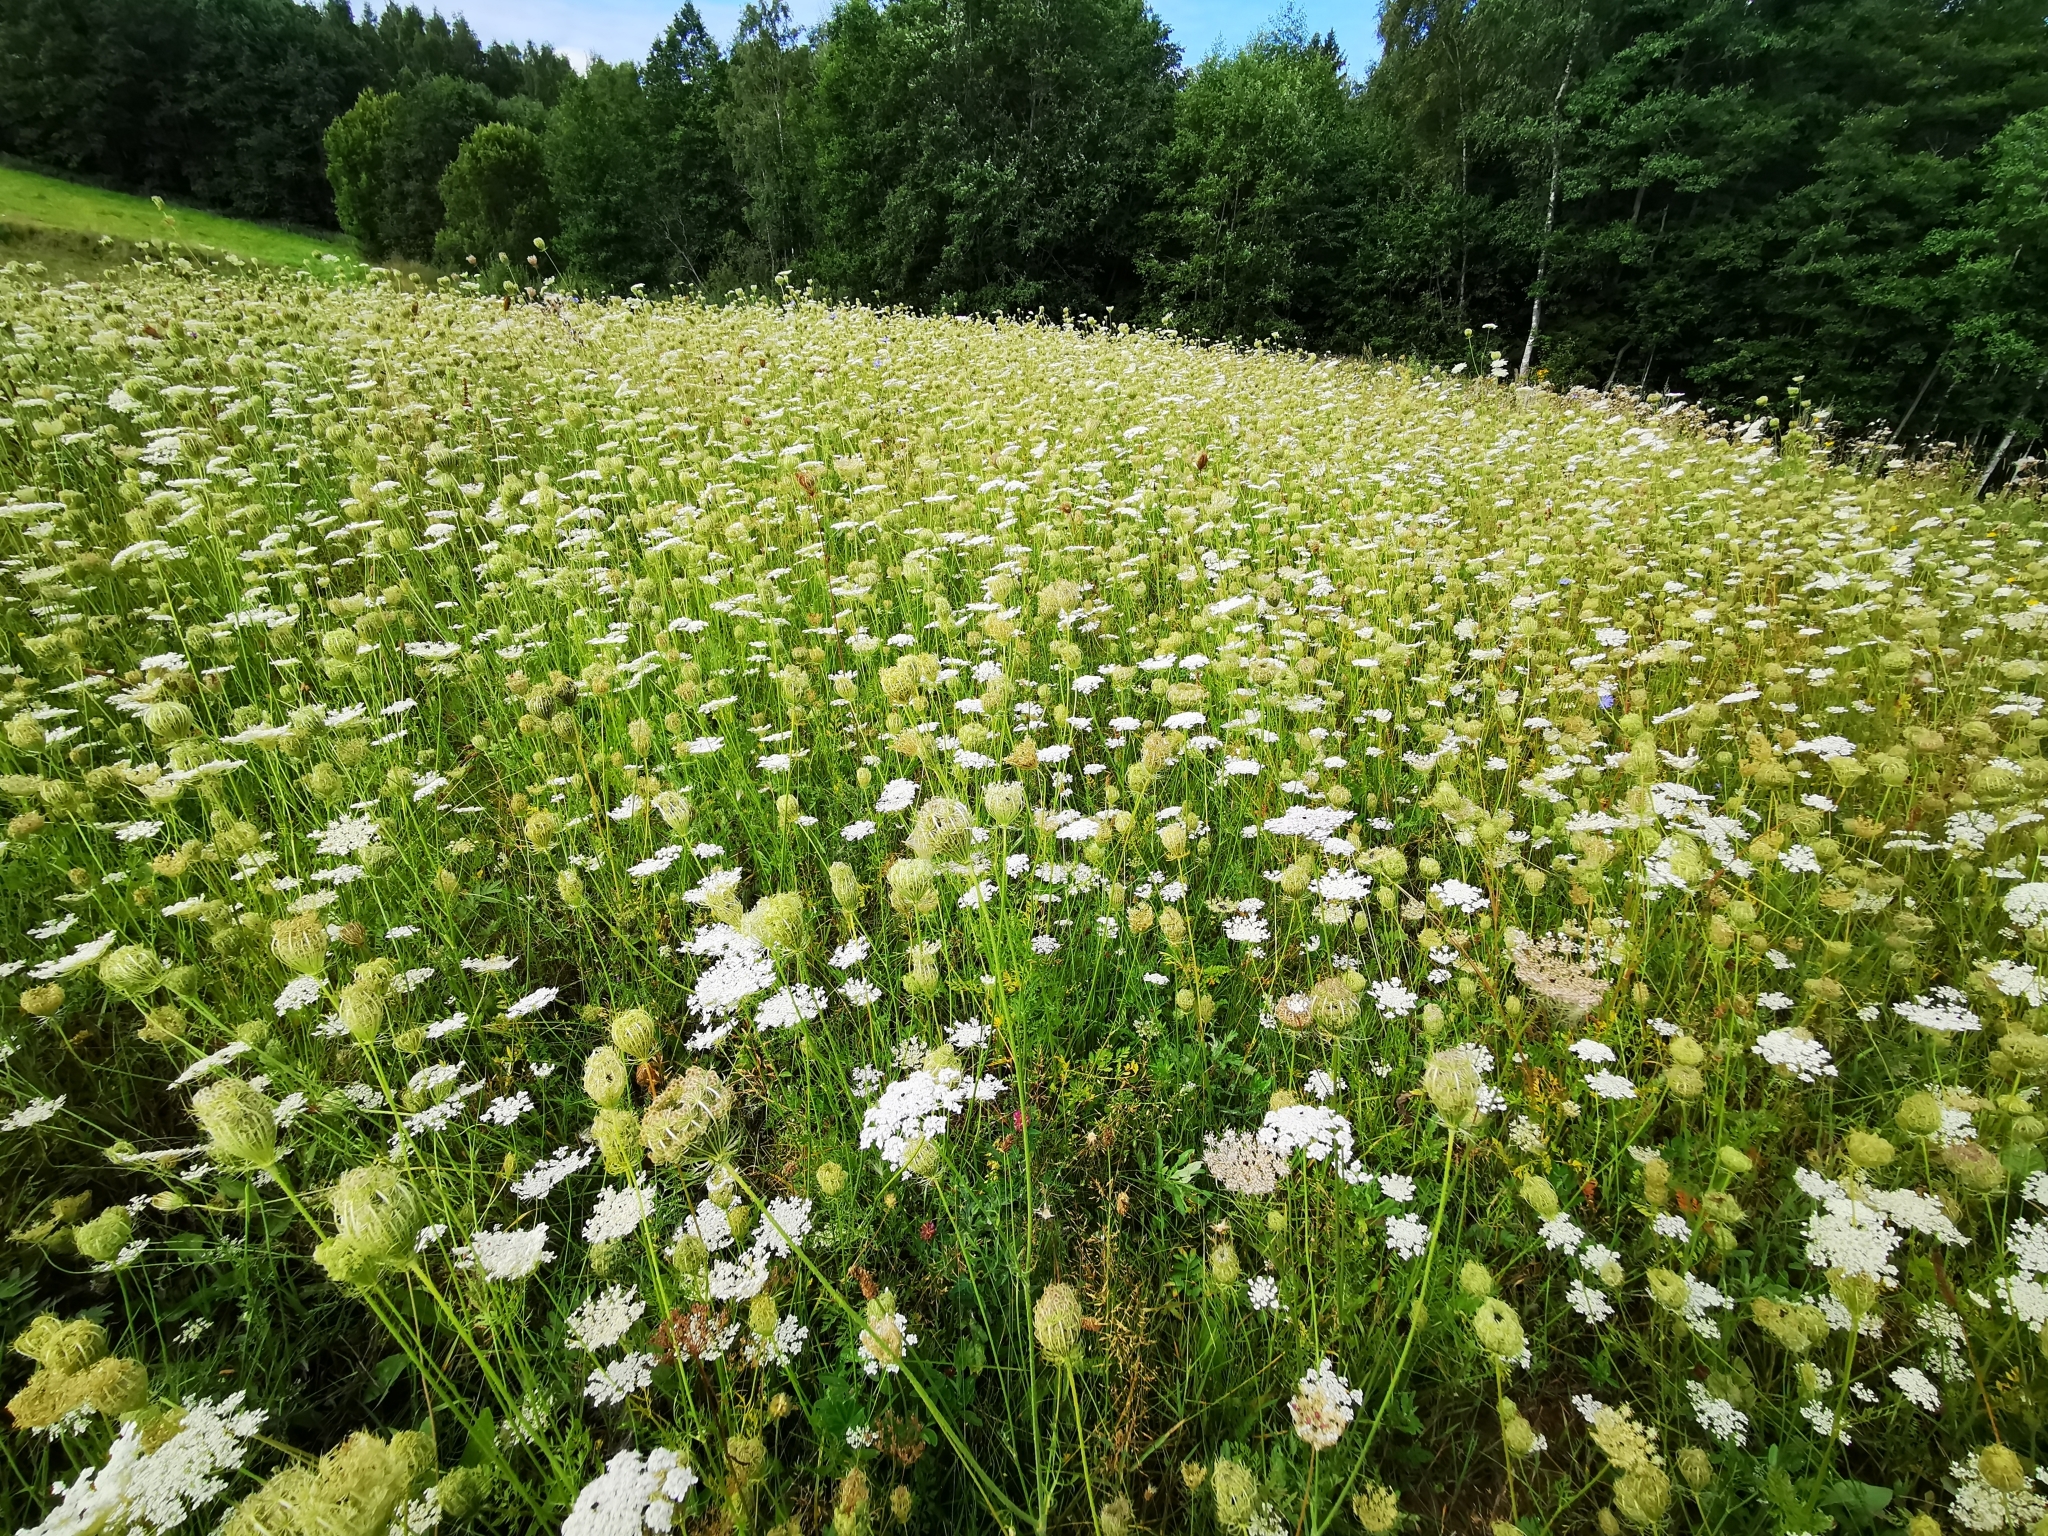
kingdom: Plantae
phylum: Tracheophyta
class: Magnoliopsida
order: Apiales
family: Apiaceae
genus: Daucus
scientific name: Daucus carota
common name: Wild carrot
